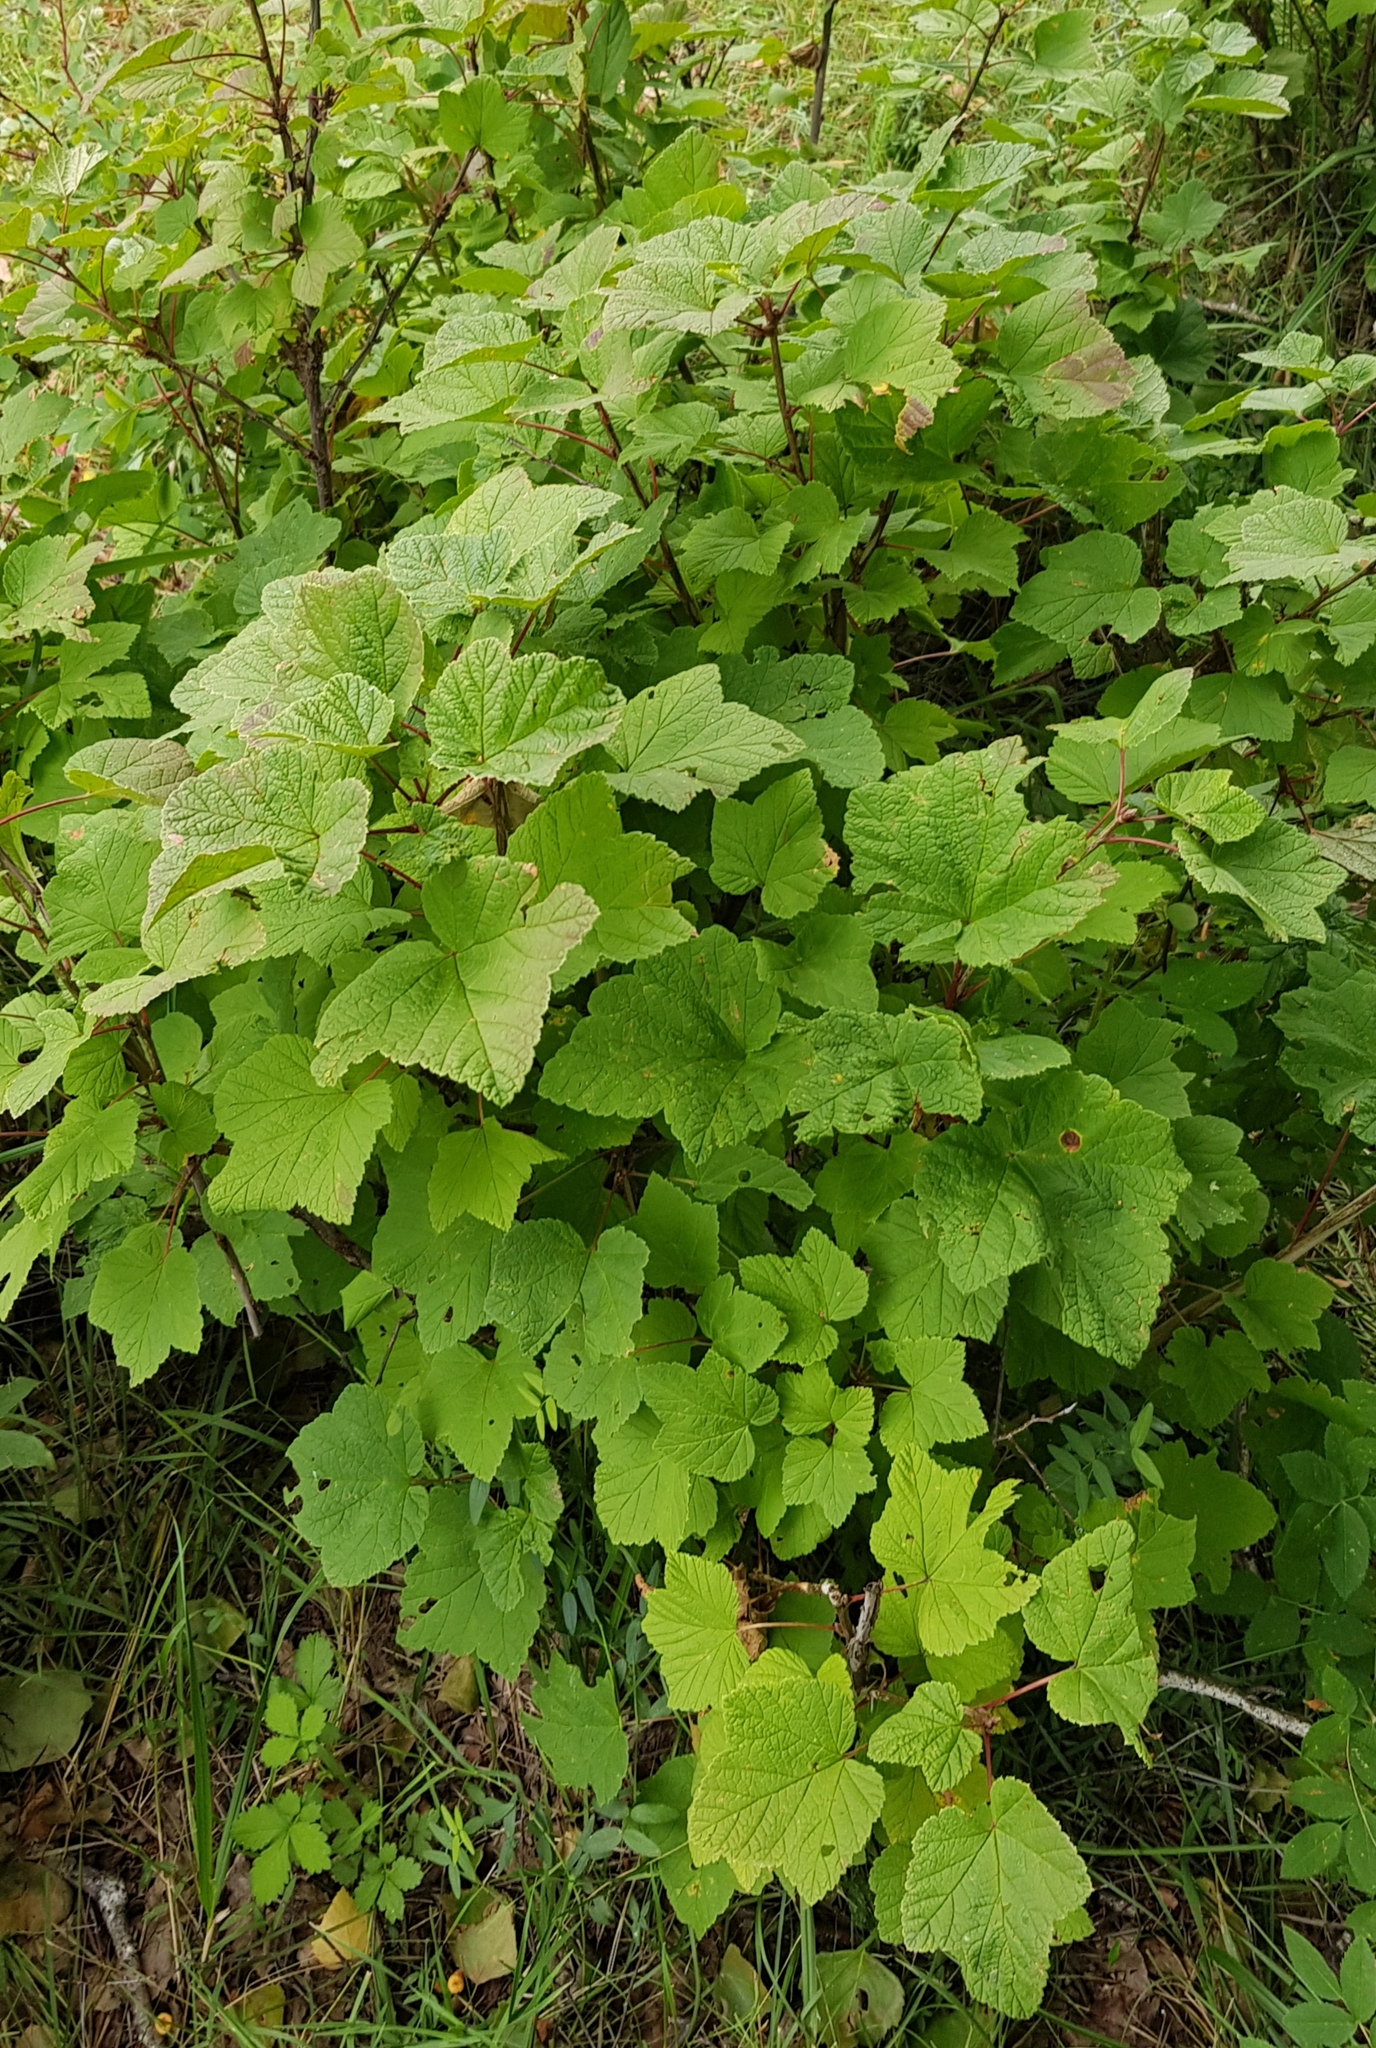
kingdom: Plantae
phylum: Tracheophyta
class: Magnoliopsida
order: Saxifragales
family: Grossulariaceae
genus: Ribes
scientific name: Ribes nigrum
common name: Black currant
